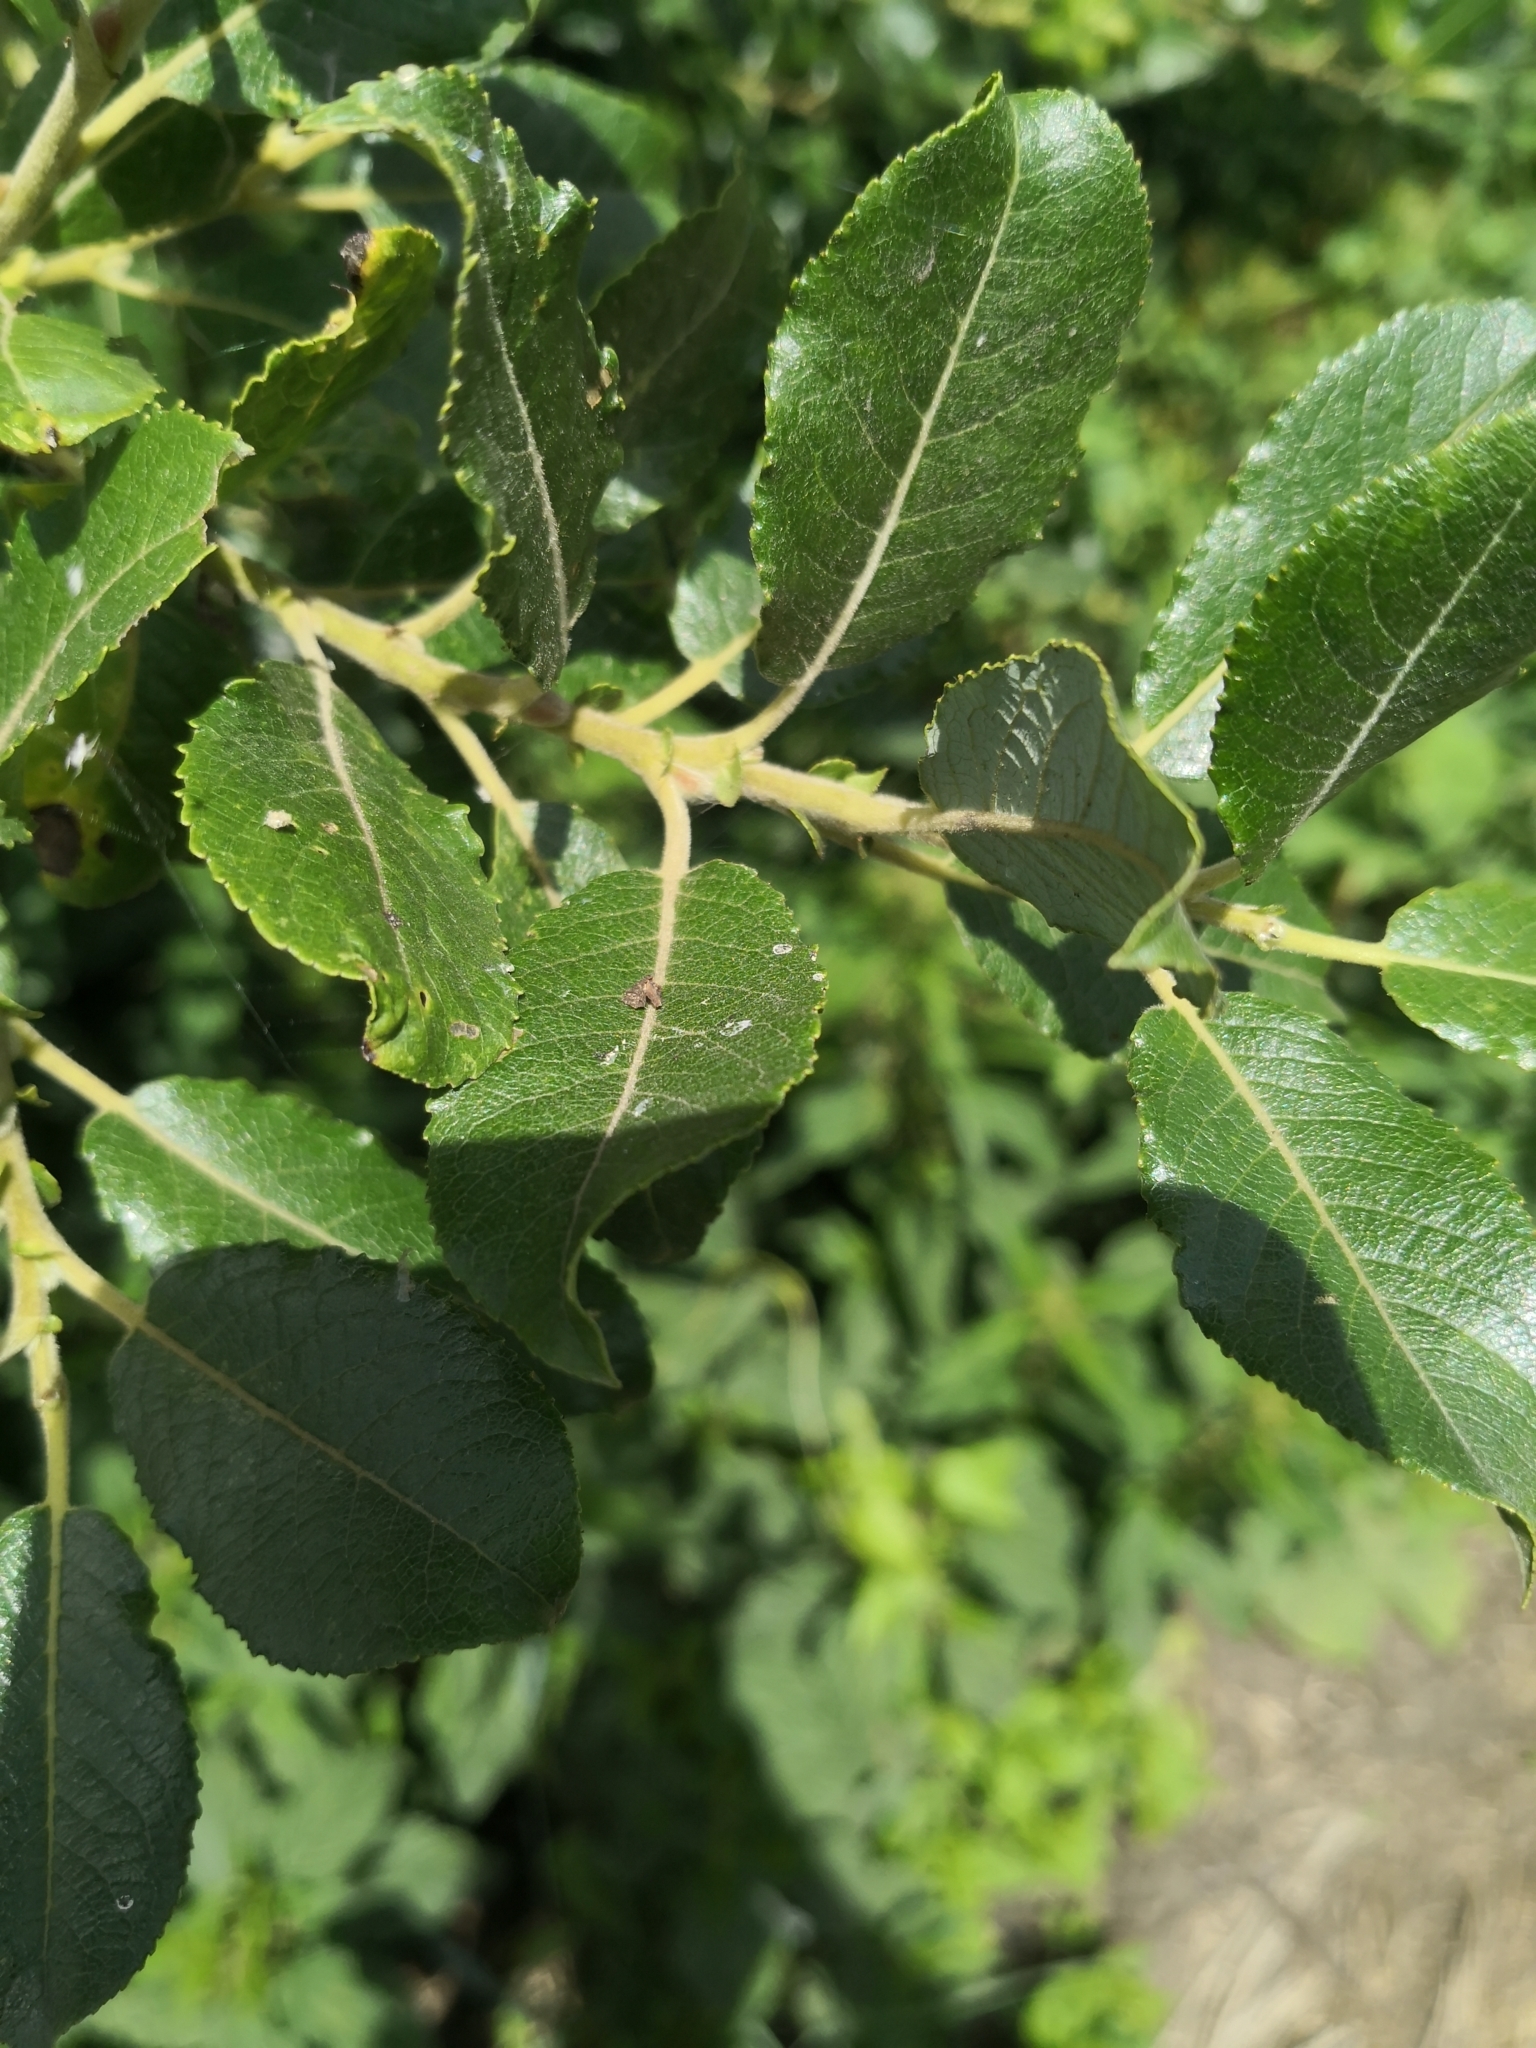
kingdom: Plantae
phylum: Tracheophyta
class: Magnoliopsida
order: Malpighiales
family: Salicaceae
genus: Salix
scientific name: Salix myrsinifolia
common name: Dark-leaved willow
